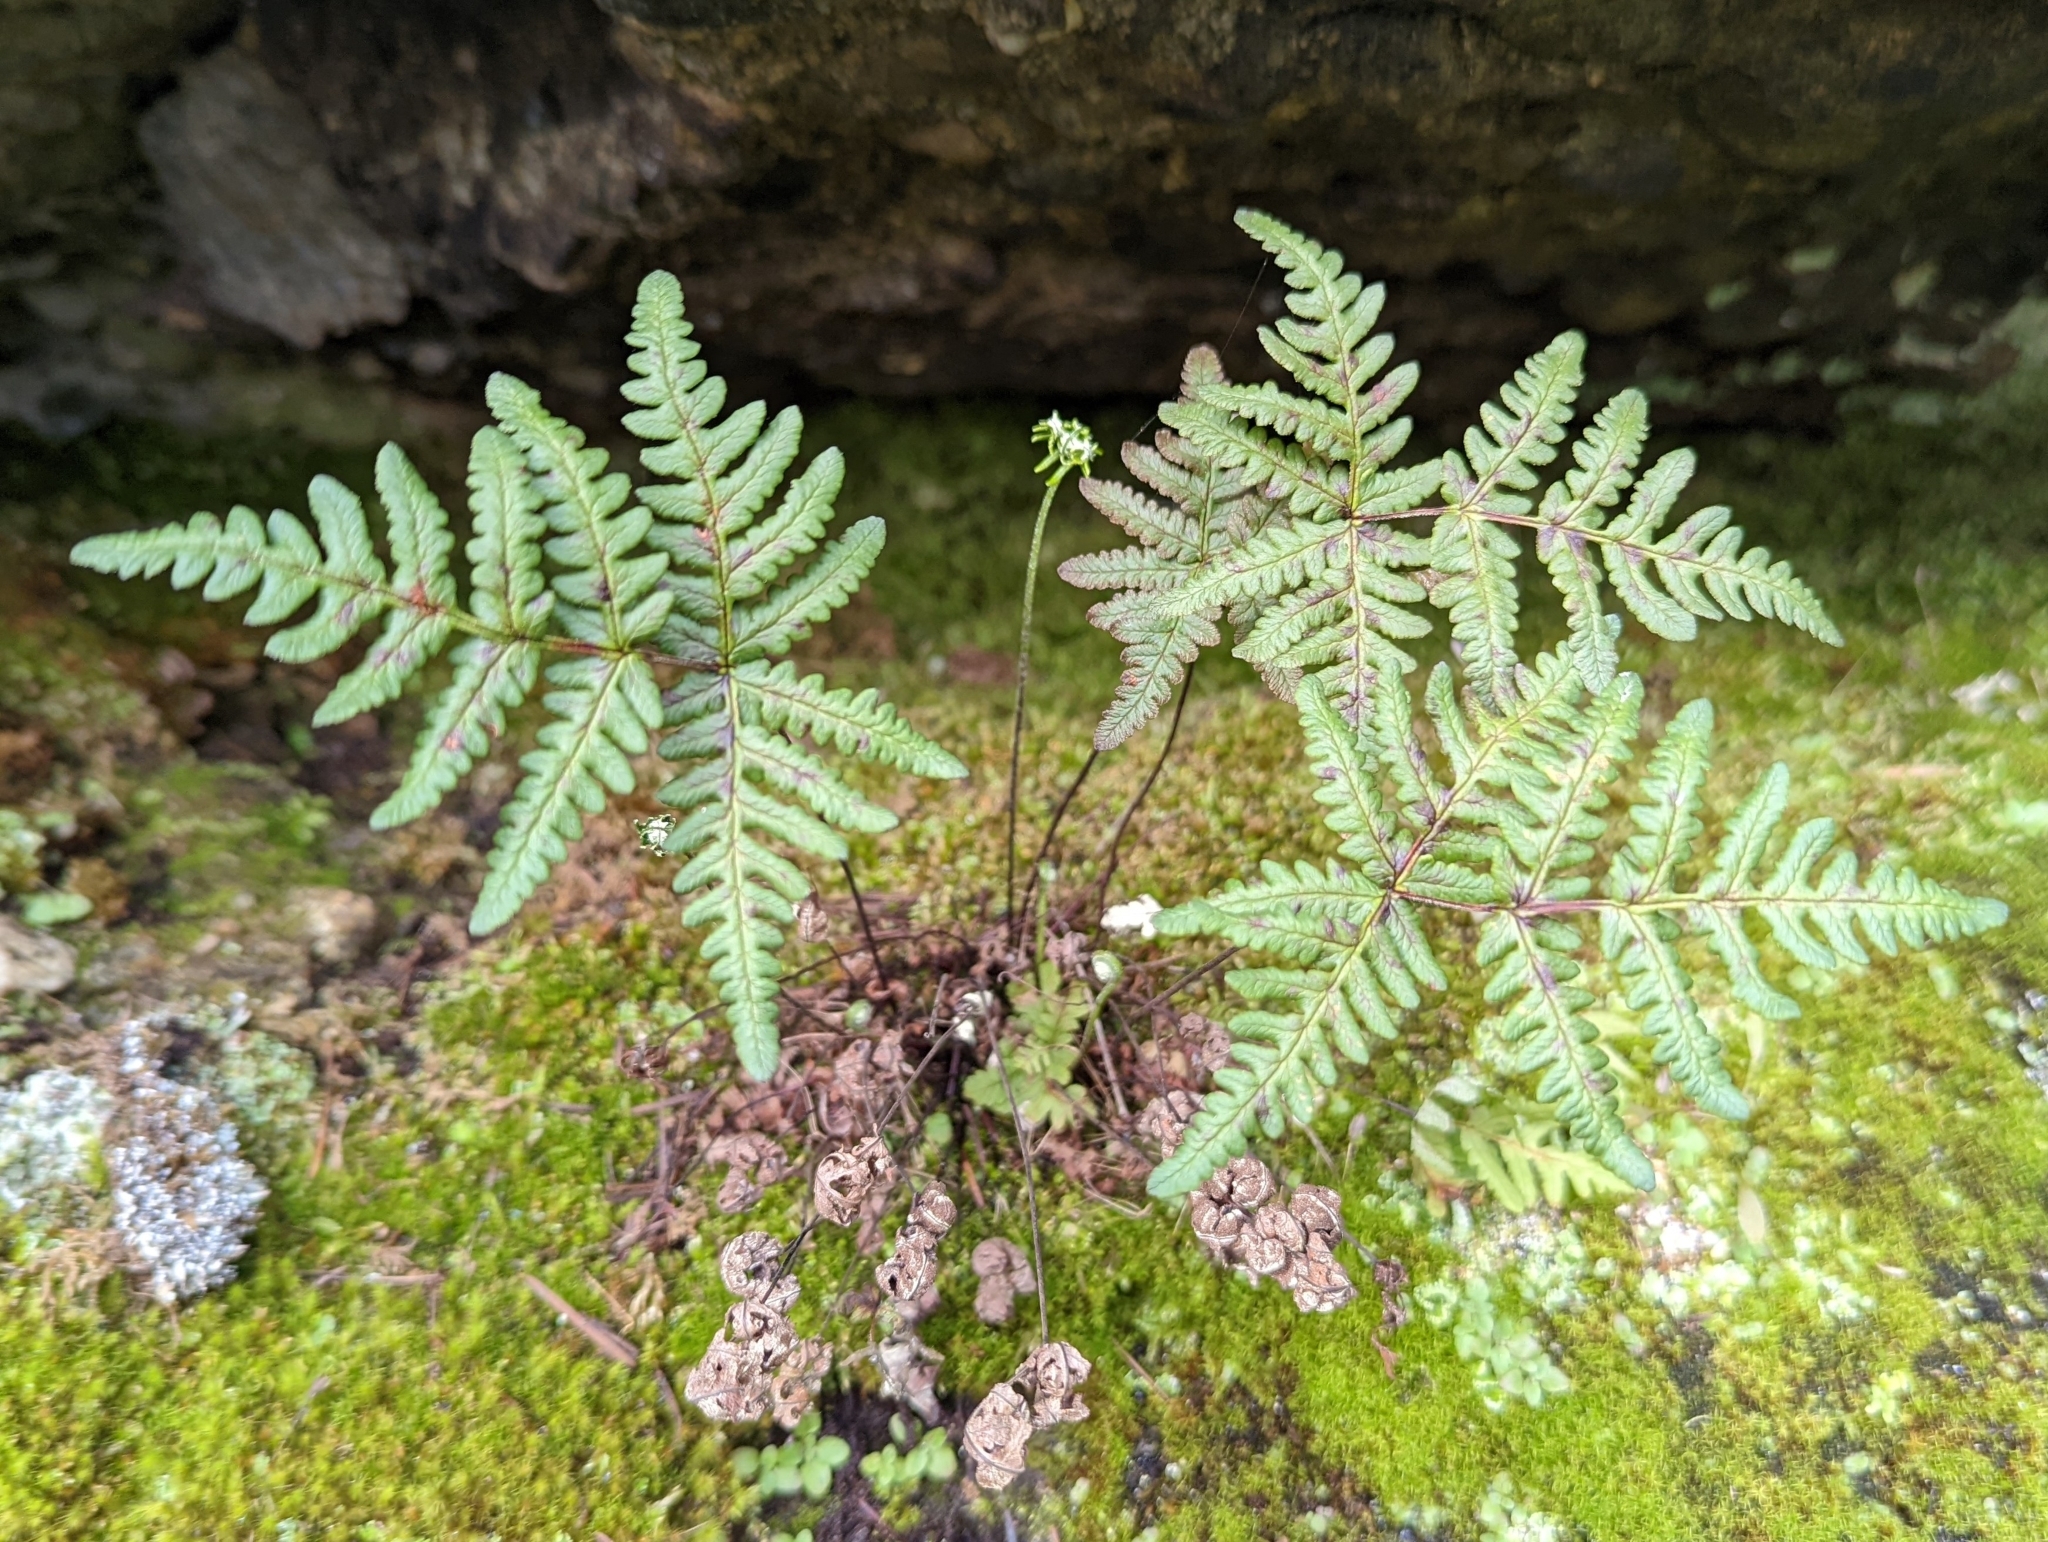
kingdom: Plantae
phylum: Tracheophyta
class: Polypodiopsida
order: Polypodiales
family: Pteridaceae
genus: Pentagramma
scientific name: Pentagramma triangularis
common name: Gold fern
